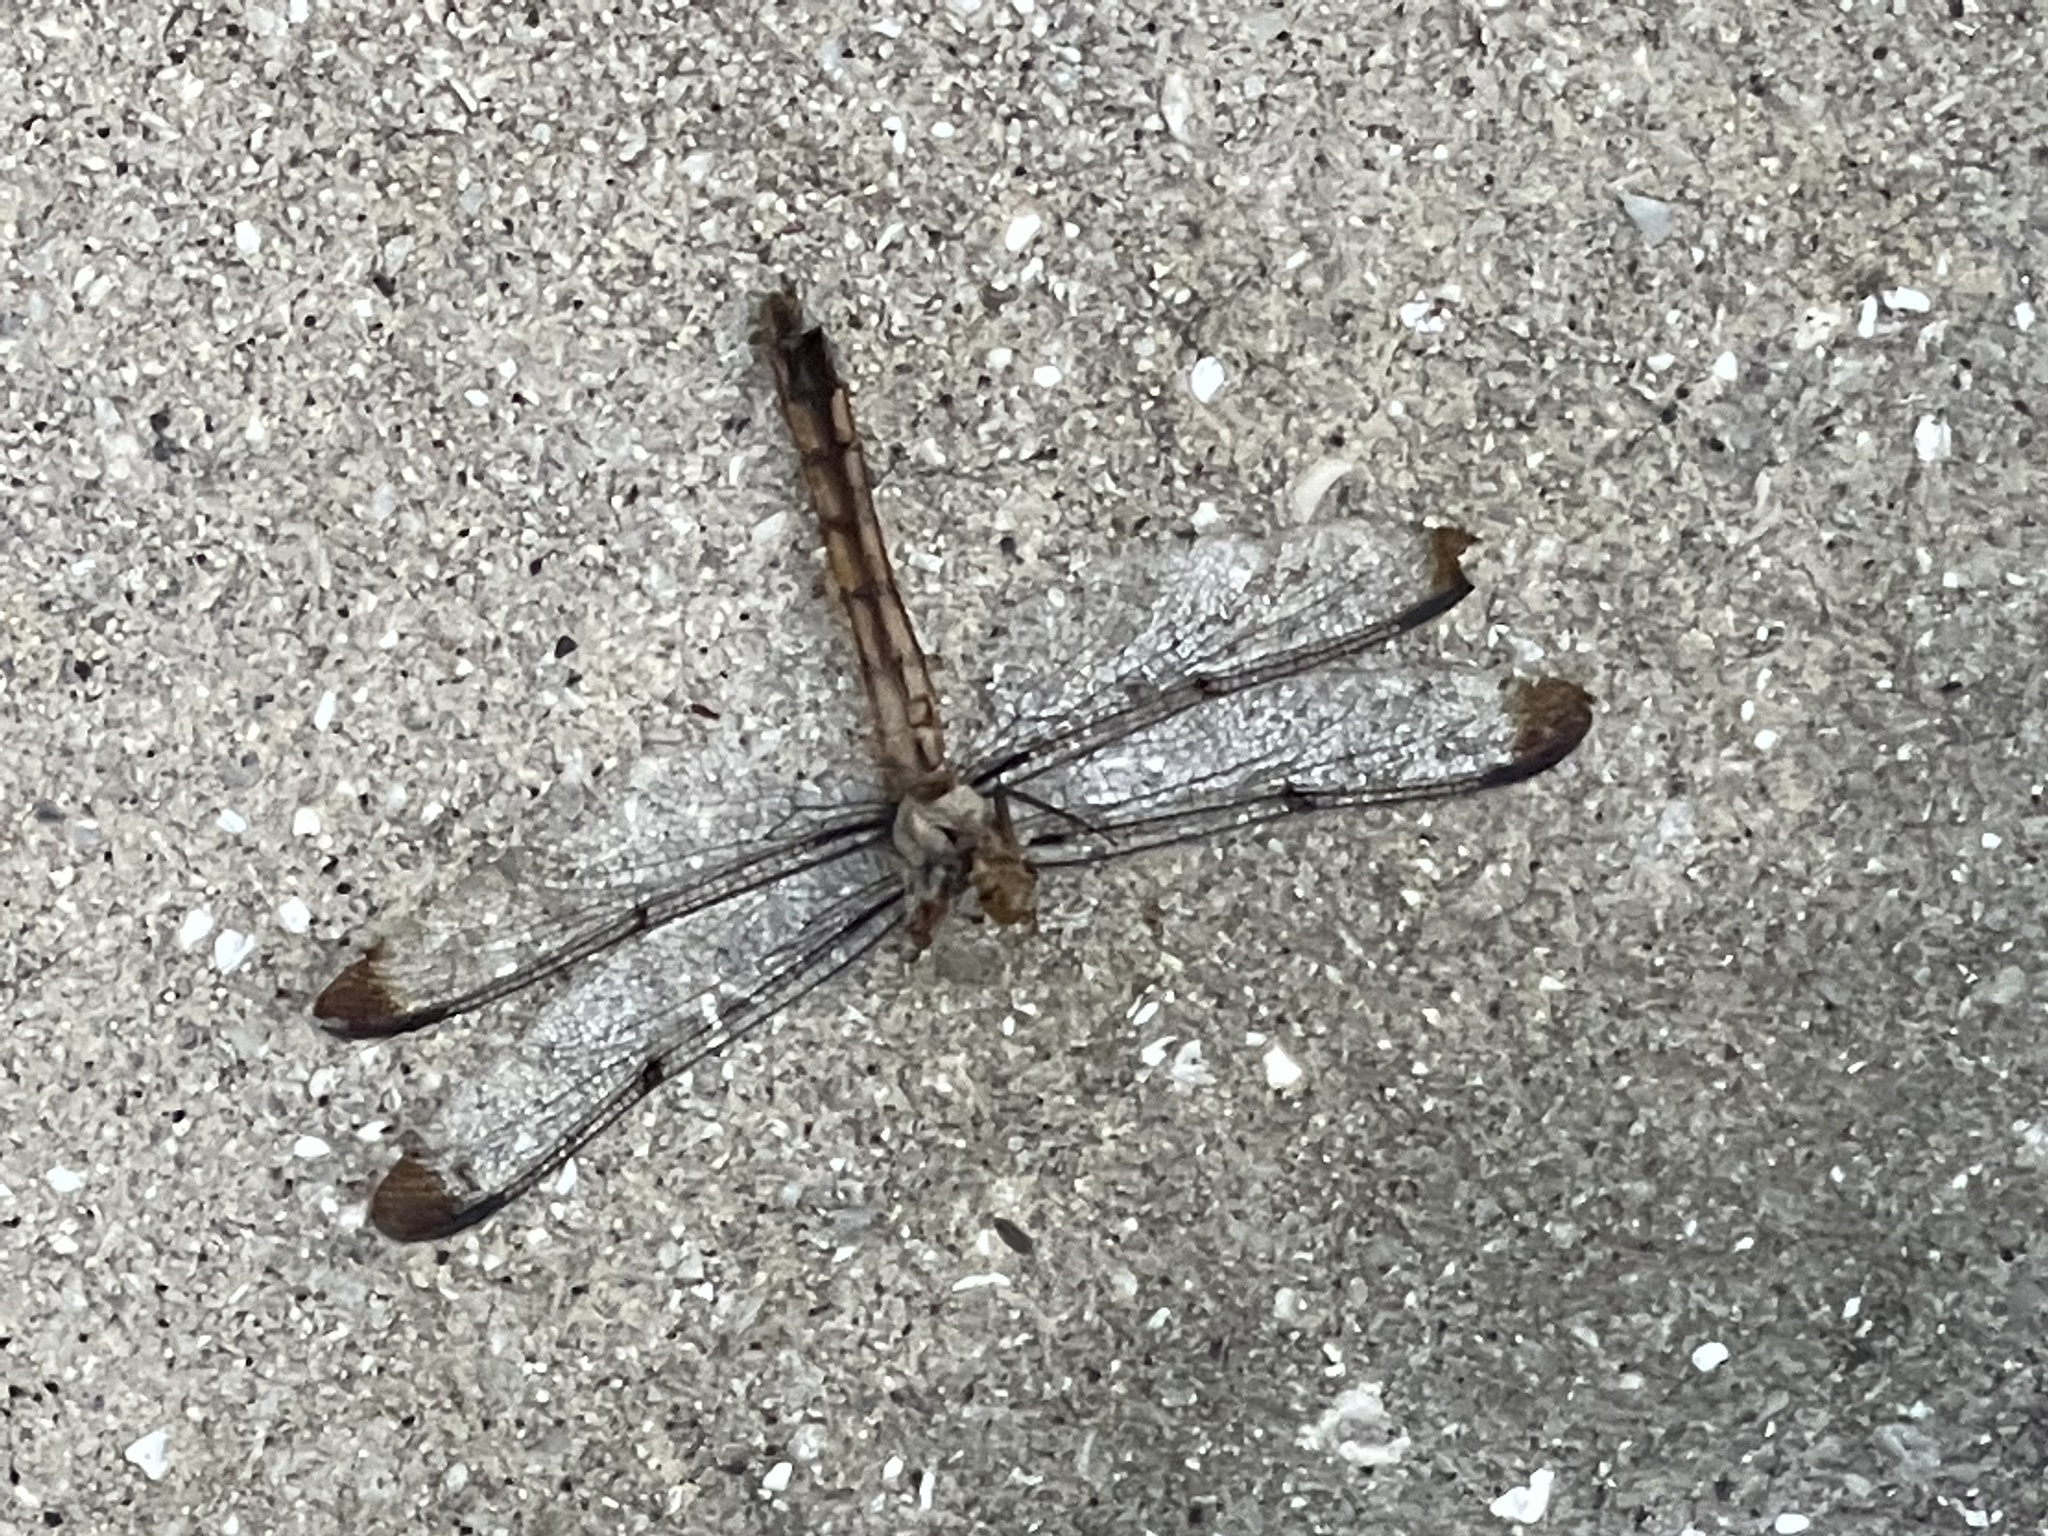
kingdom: Animalia
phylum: Arthropoda
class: Insecta
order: Odonata
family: Libellulidae
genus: Libellula
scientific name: Libellula vibrans
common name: Great blue skimmer
